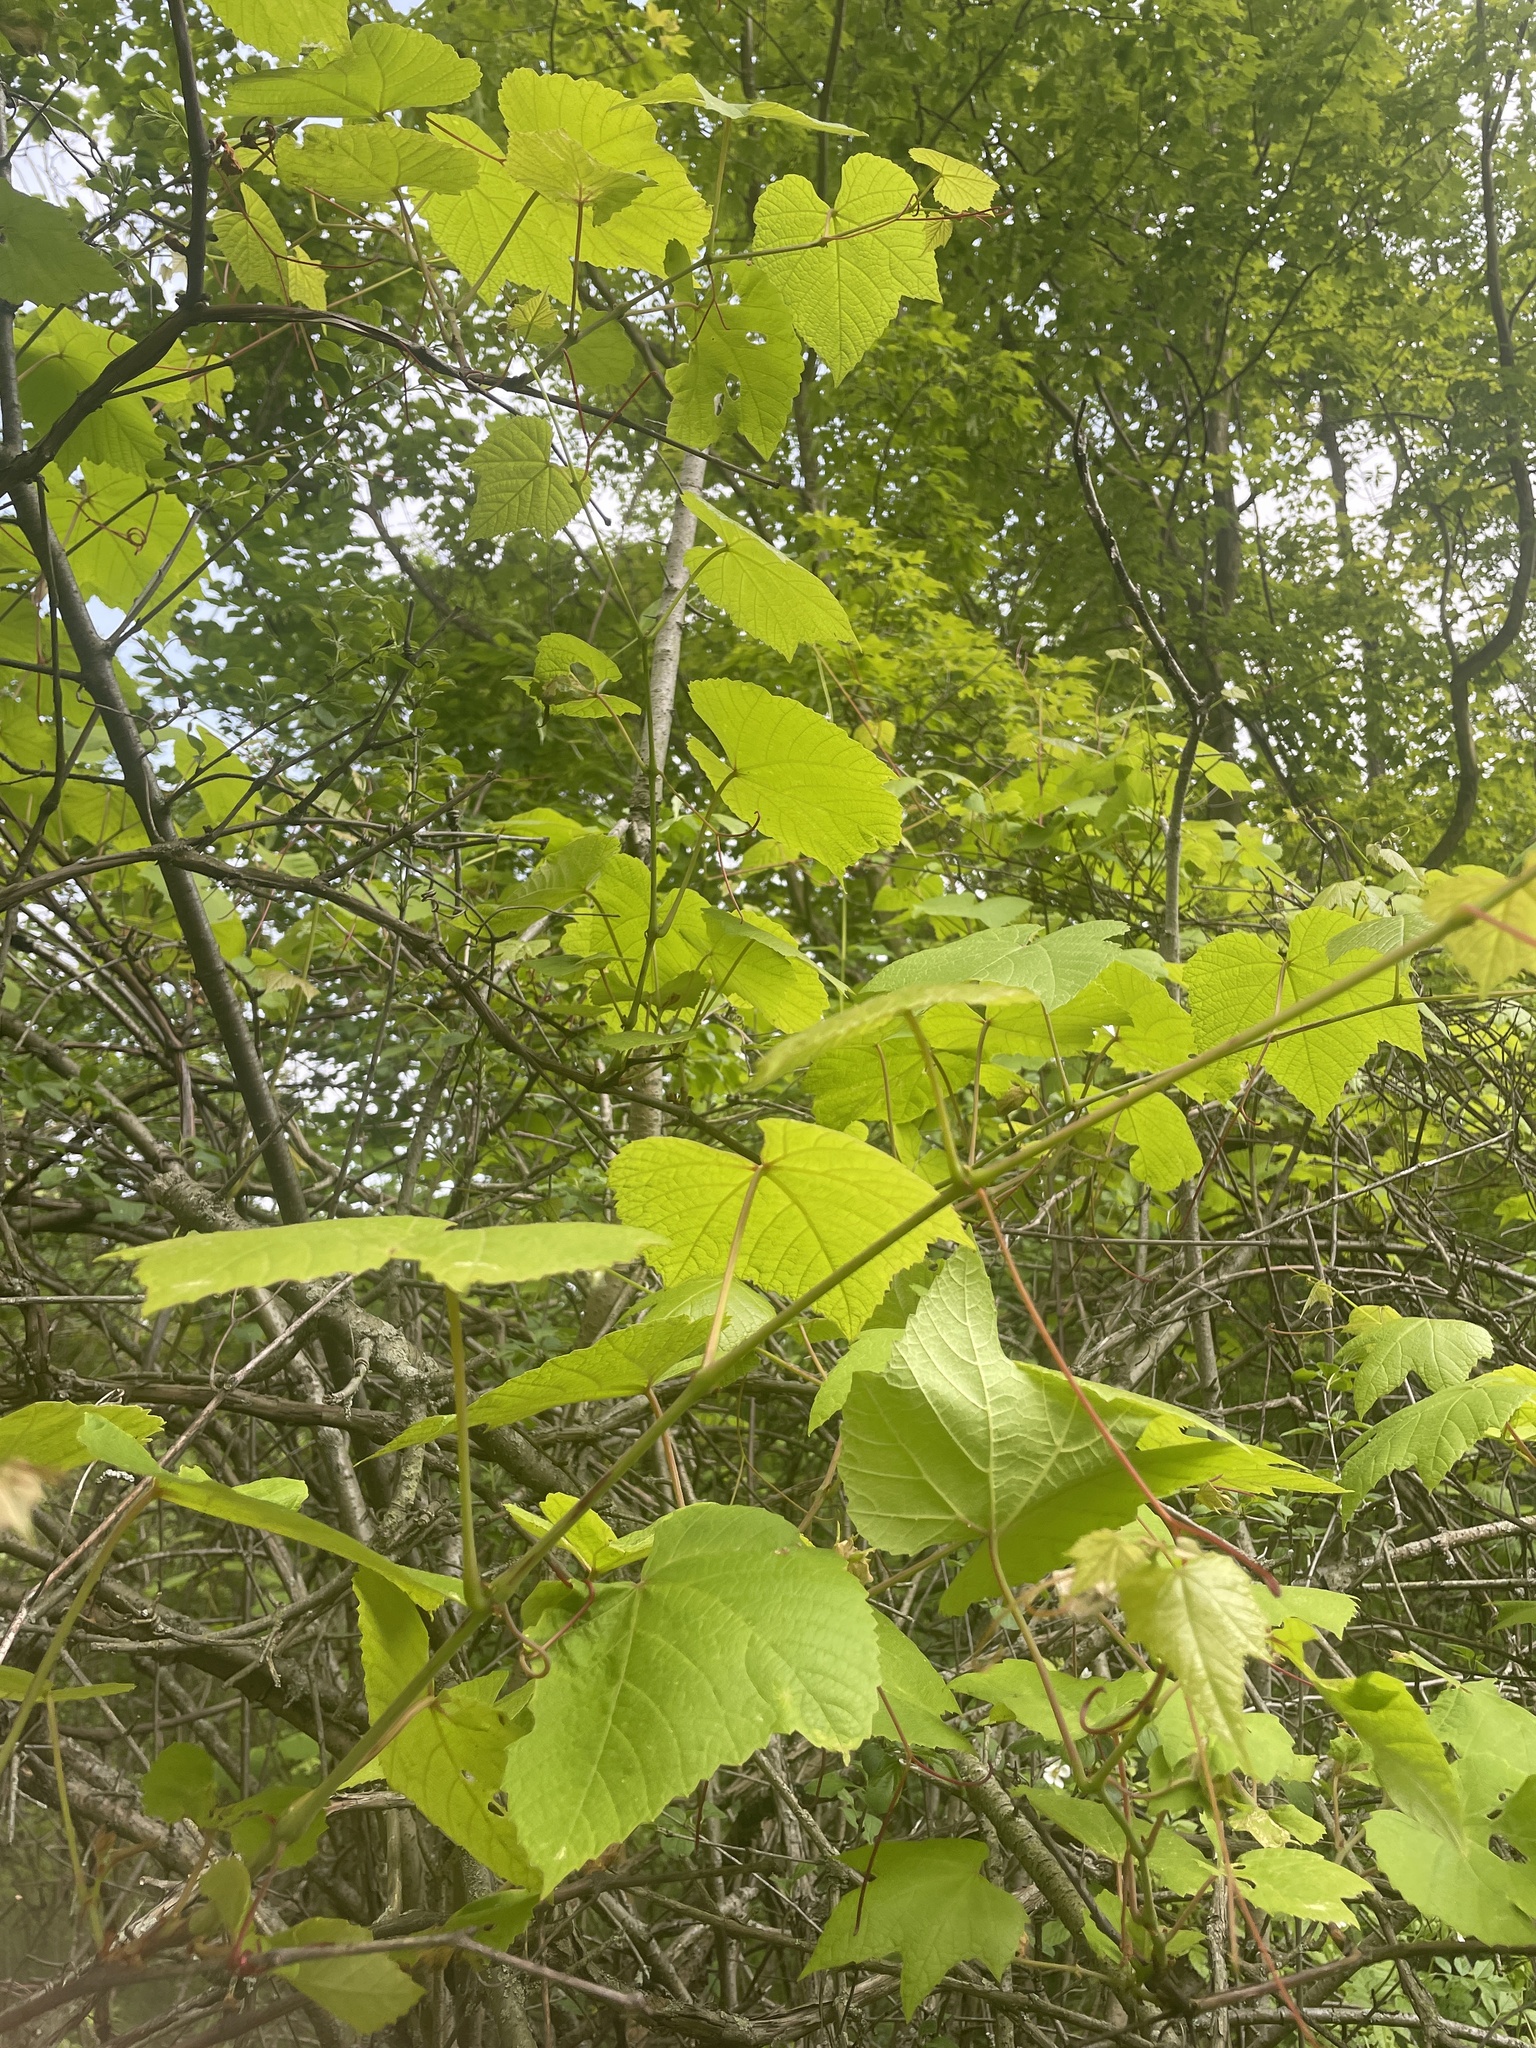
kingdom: Plantae
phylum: Tracheophyta
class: Magnoliopsida
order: Vitales
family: Vitaceae
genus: Vitis
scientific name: Vitis aestivalis
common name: Pigeon grape
